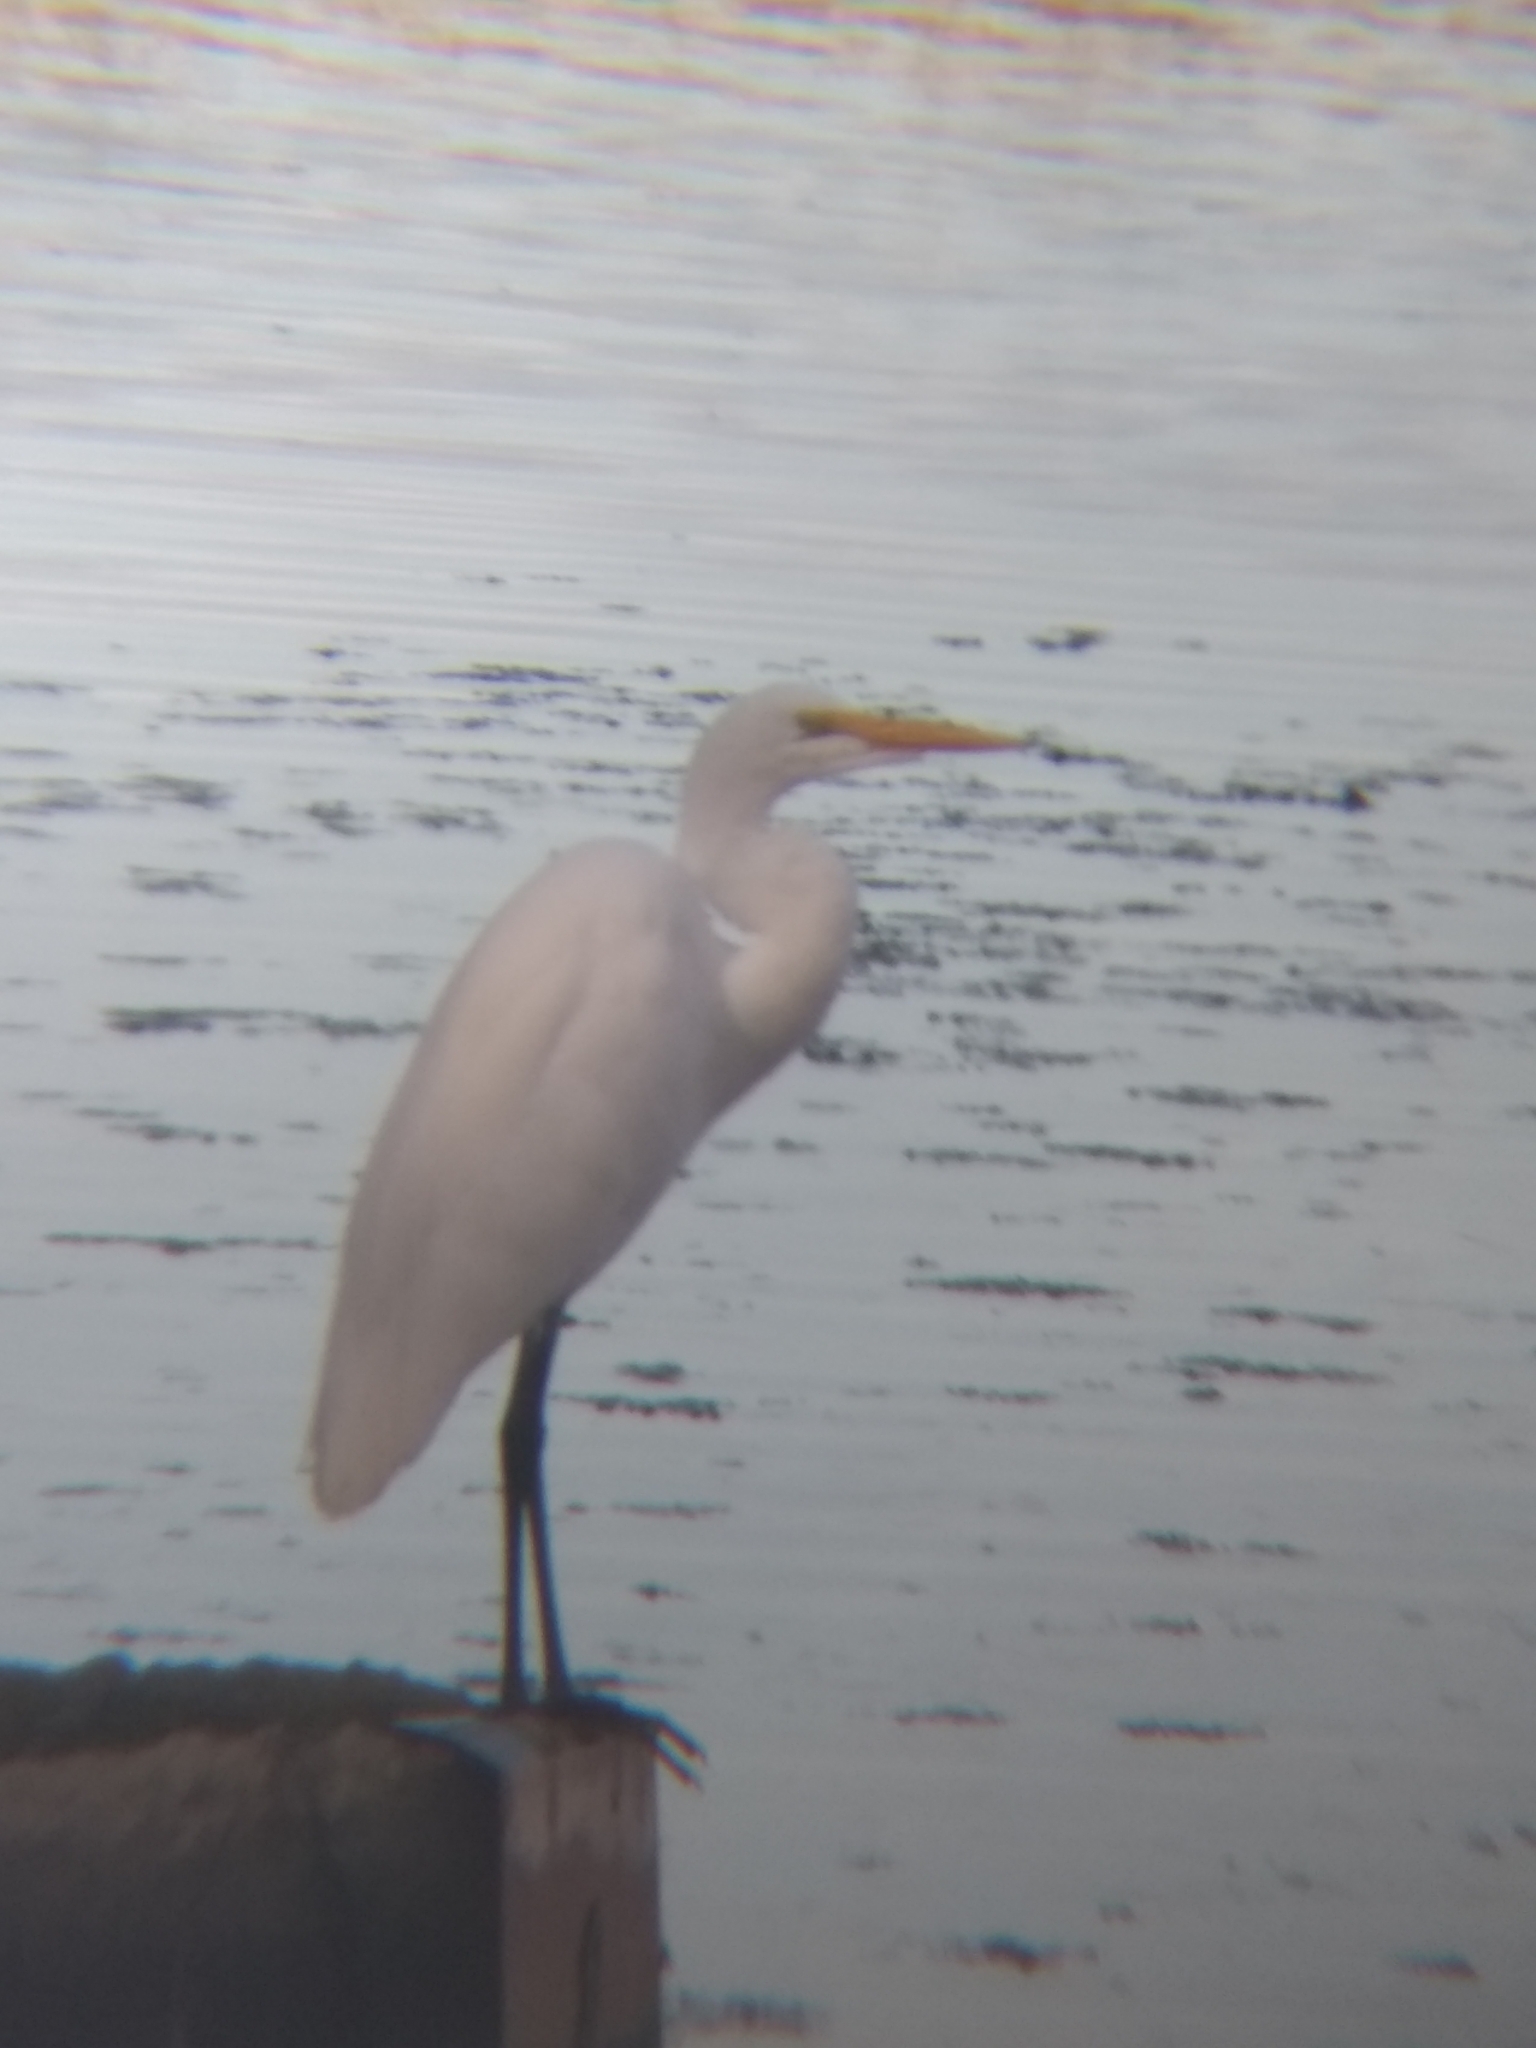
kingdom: Animalia
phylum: Chordata
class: Aves
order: Pelecaniformes
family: Ardeidae
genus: Ardea
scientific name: Ardea alba
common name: Great egret
